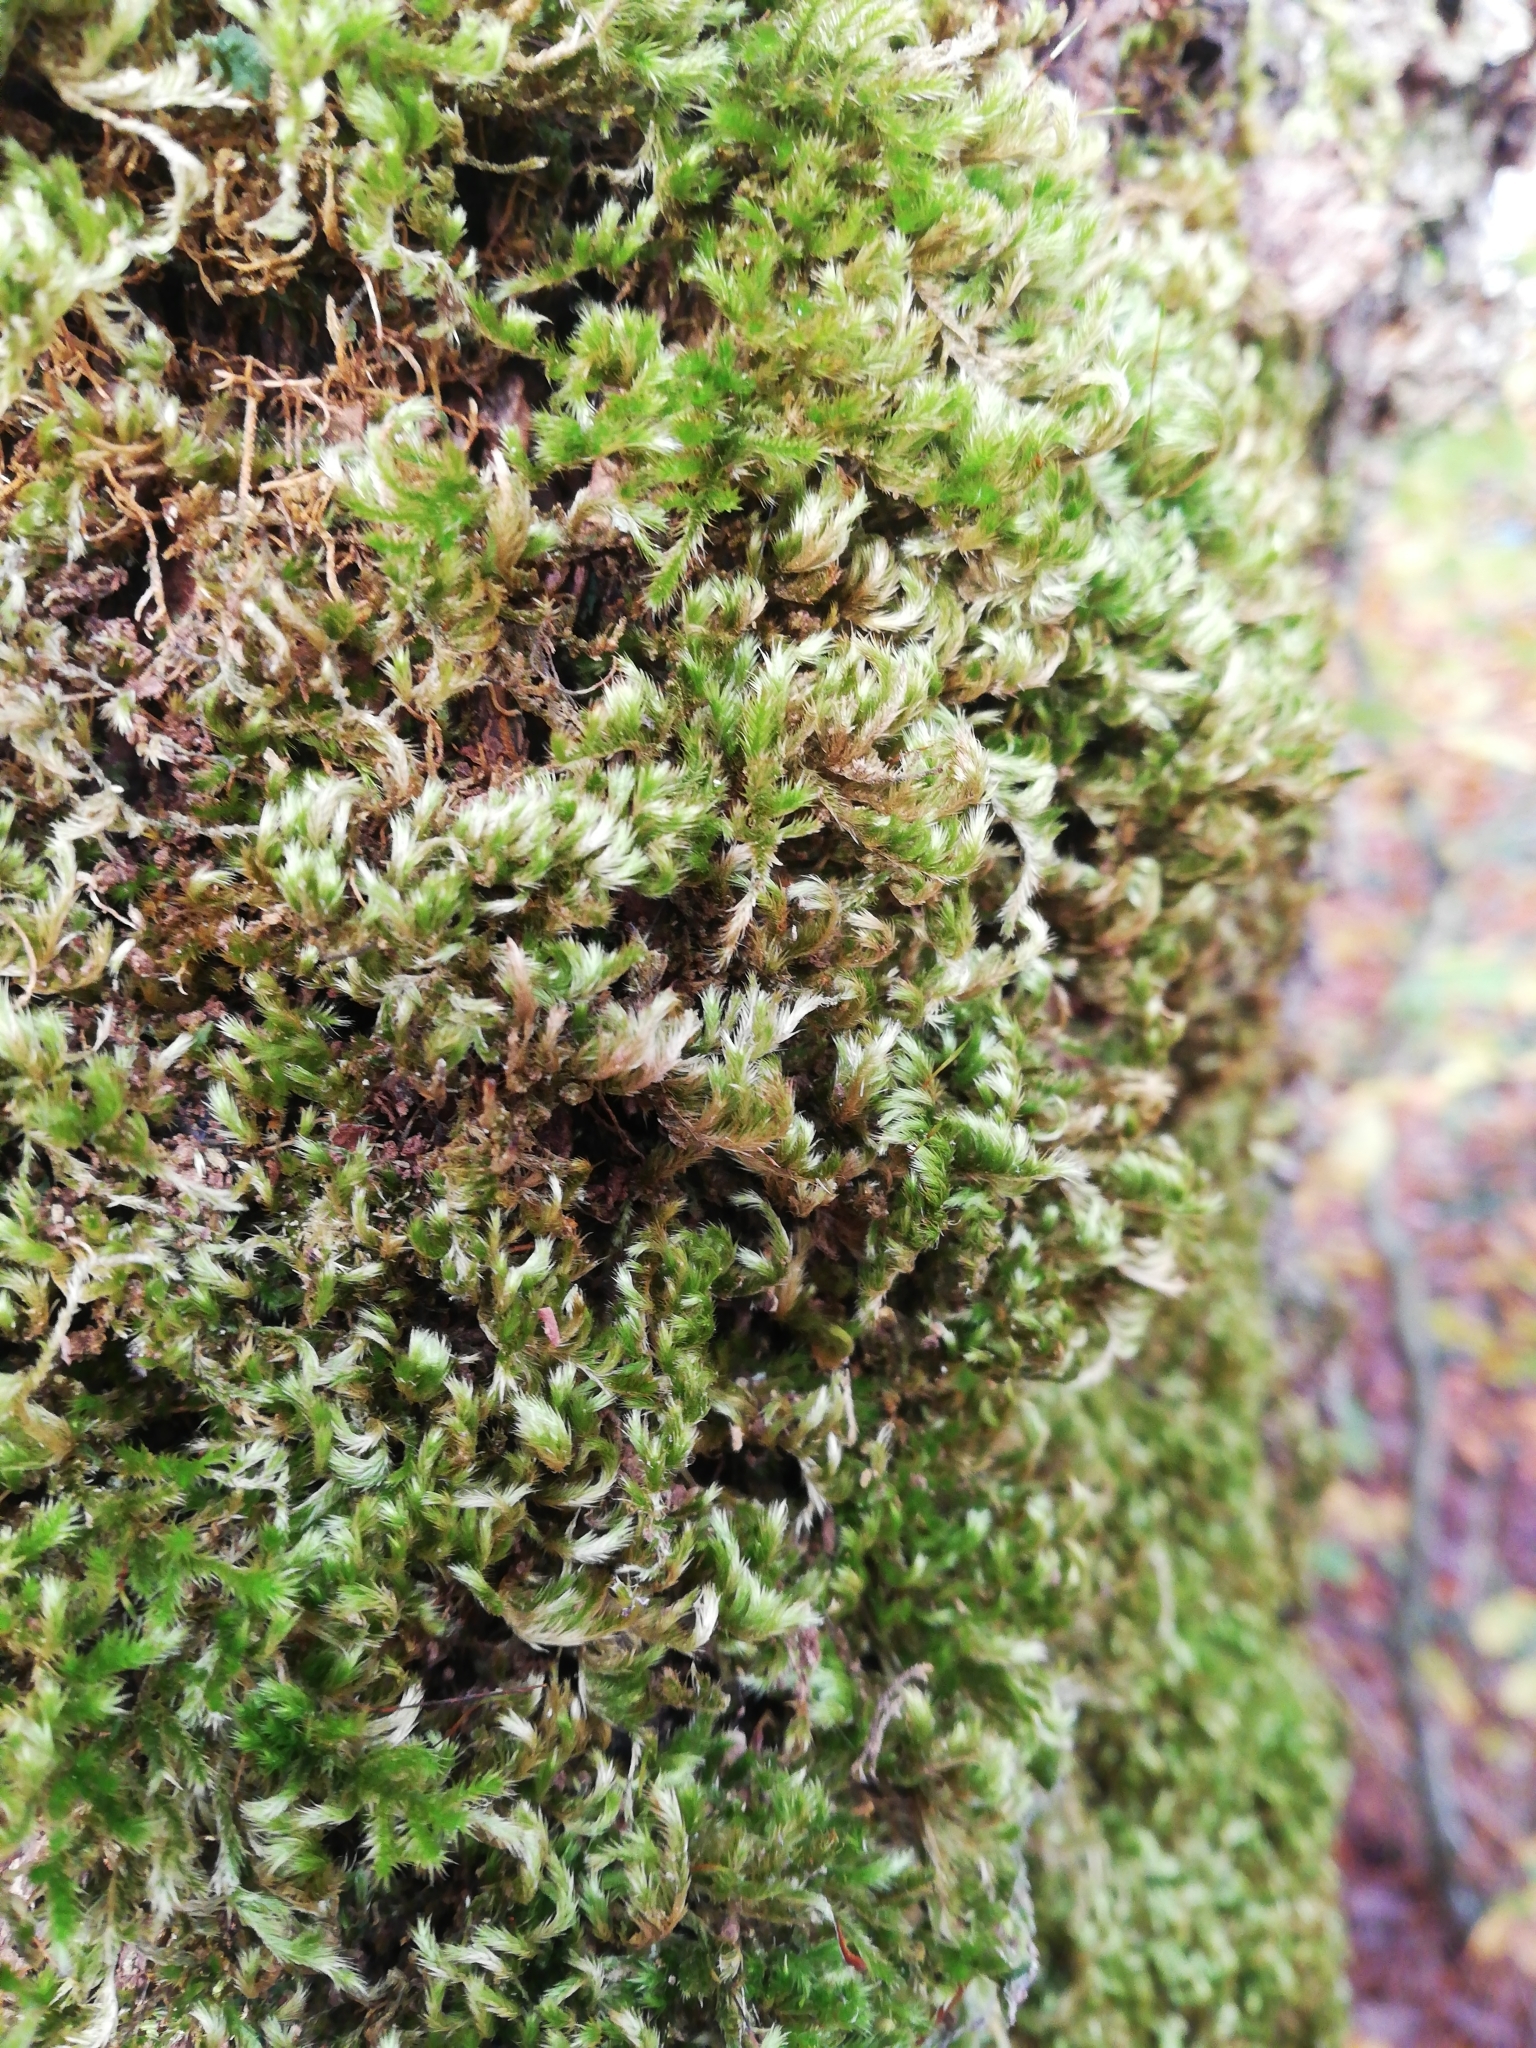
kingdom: Plantae
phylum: Bryophyta
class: Bryopsida
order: Hypnales
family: Brachytheciaceae
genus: Homalothecium
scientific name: Homalothecium sericeum
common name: Silky wall feather-moss
